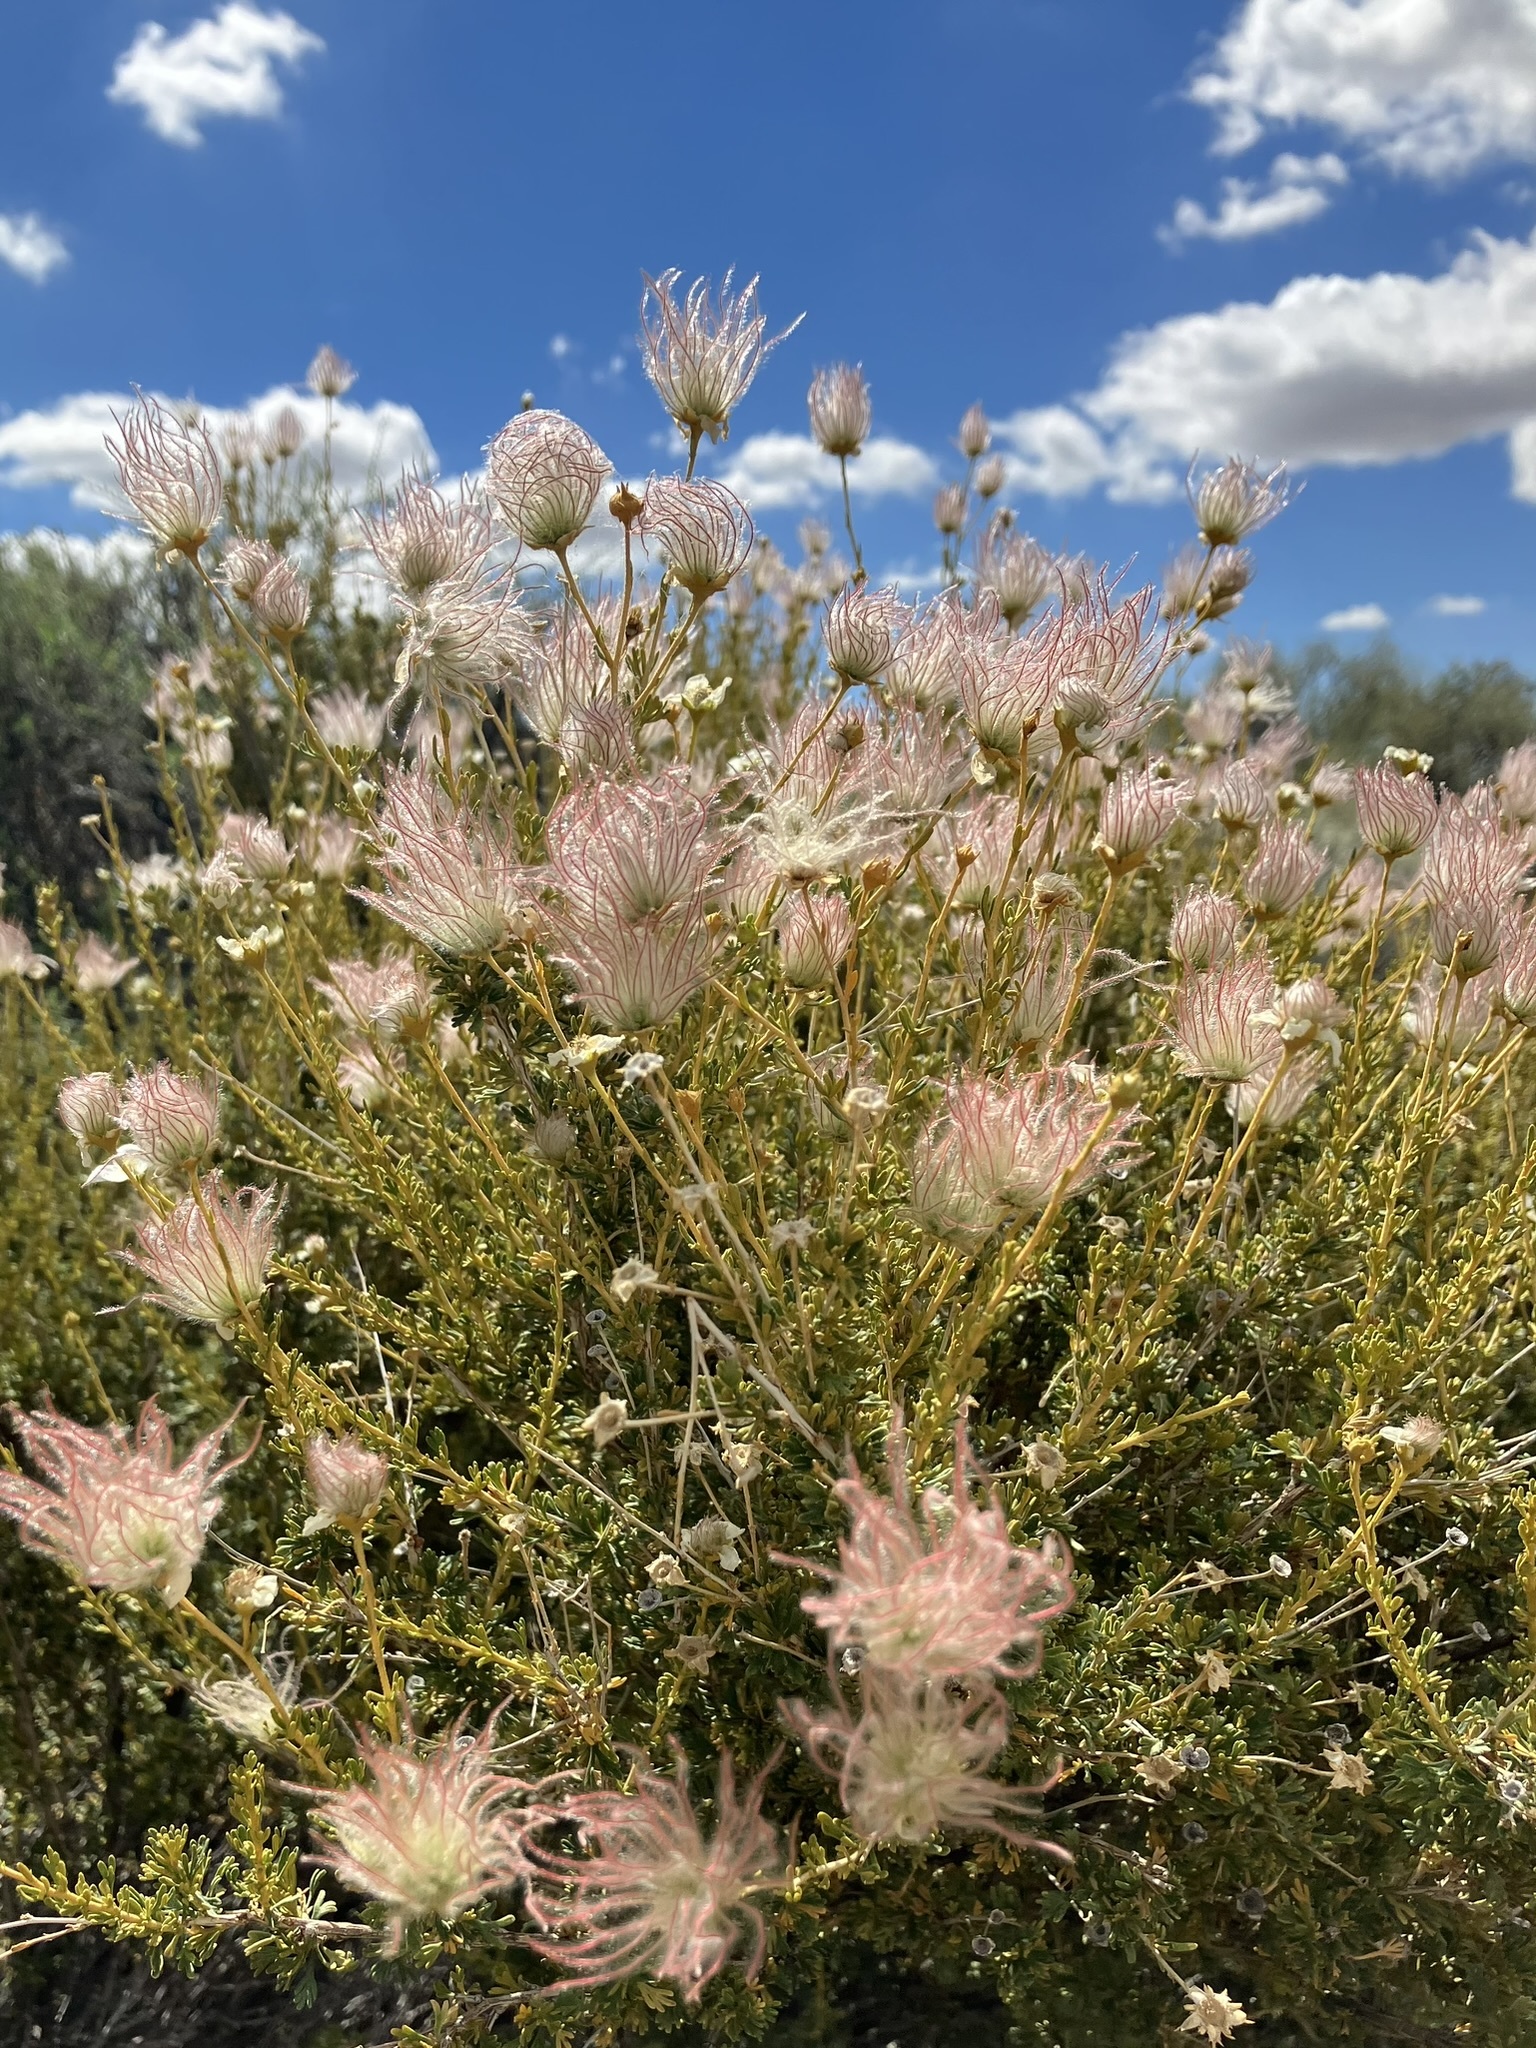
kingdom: Plantae
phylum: Tracheophyta
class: Magnoliopsida
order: Rosales
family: Rosaceae
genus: Fallugia
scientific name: Fallugia paradoxa
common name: Apache-plume
